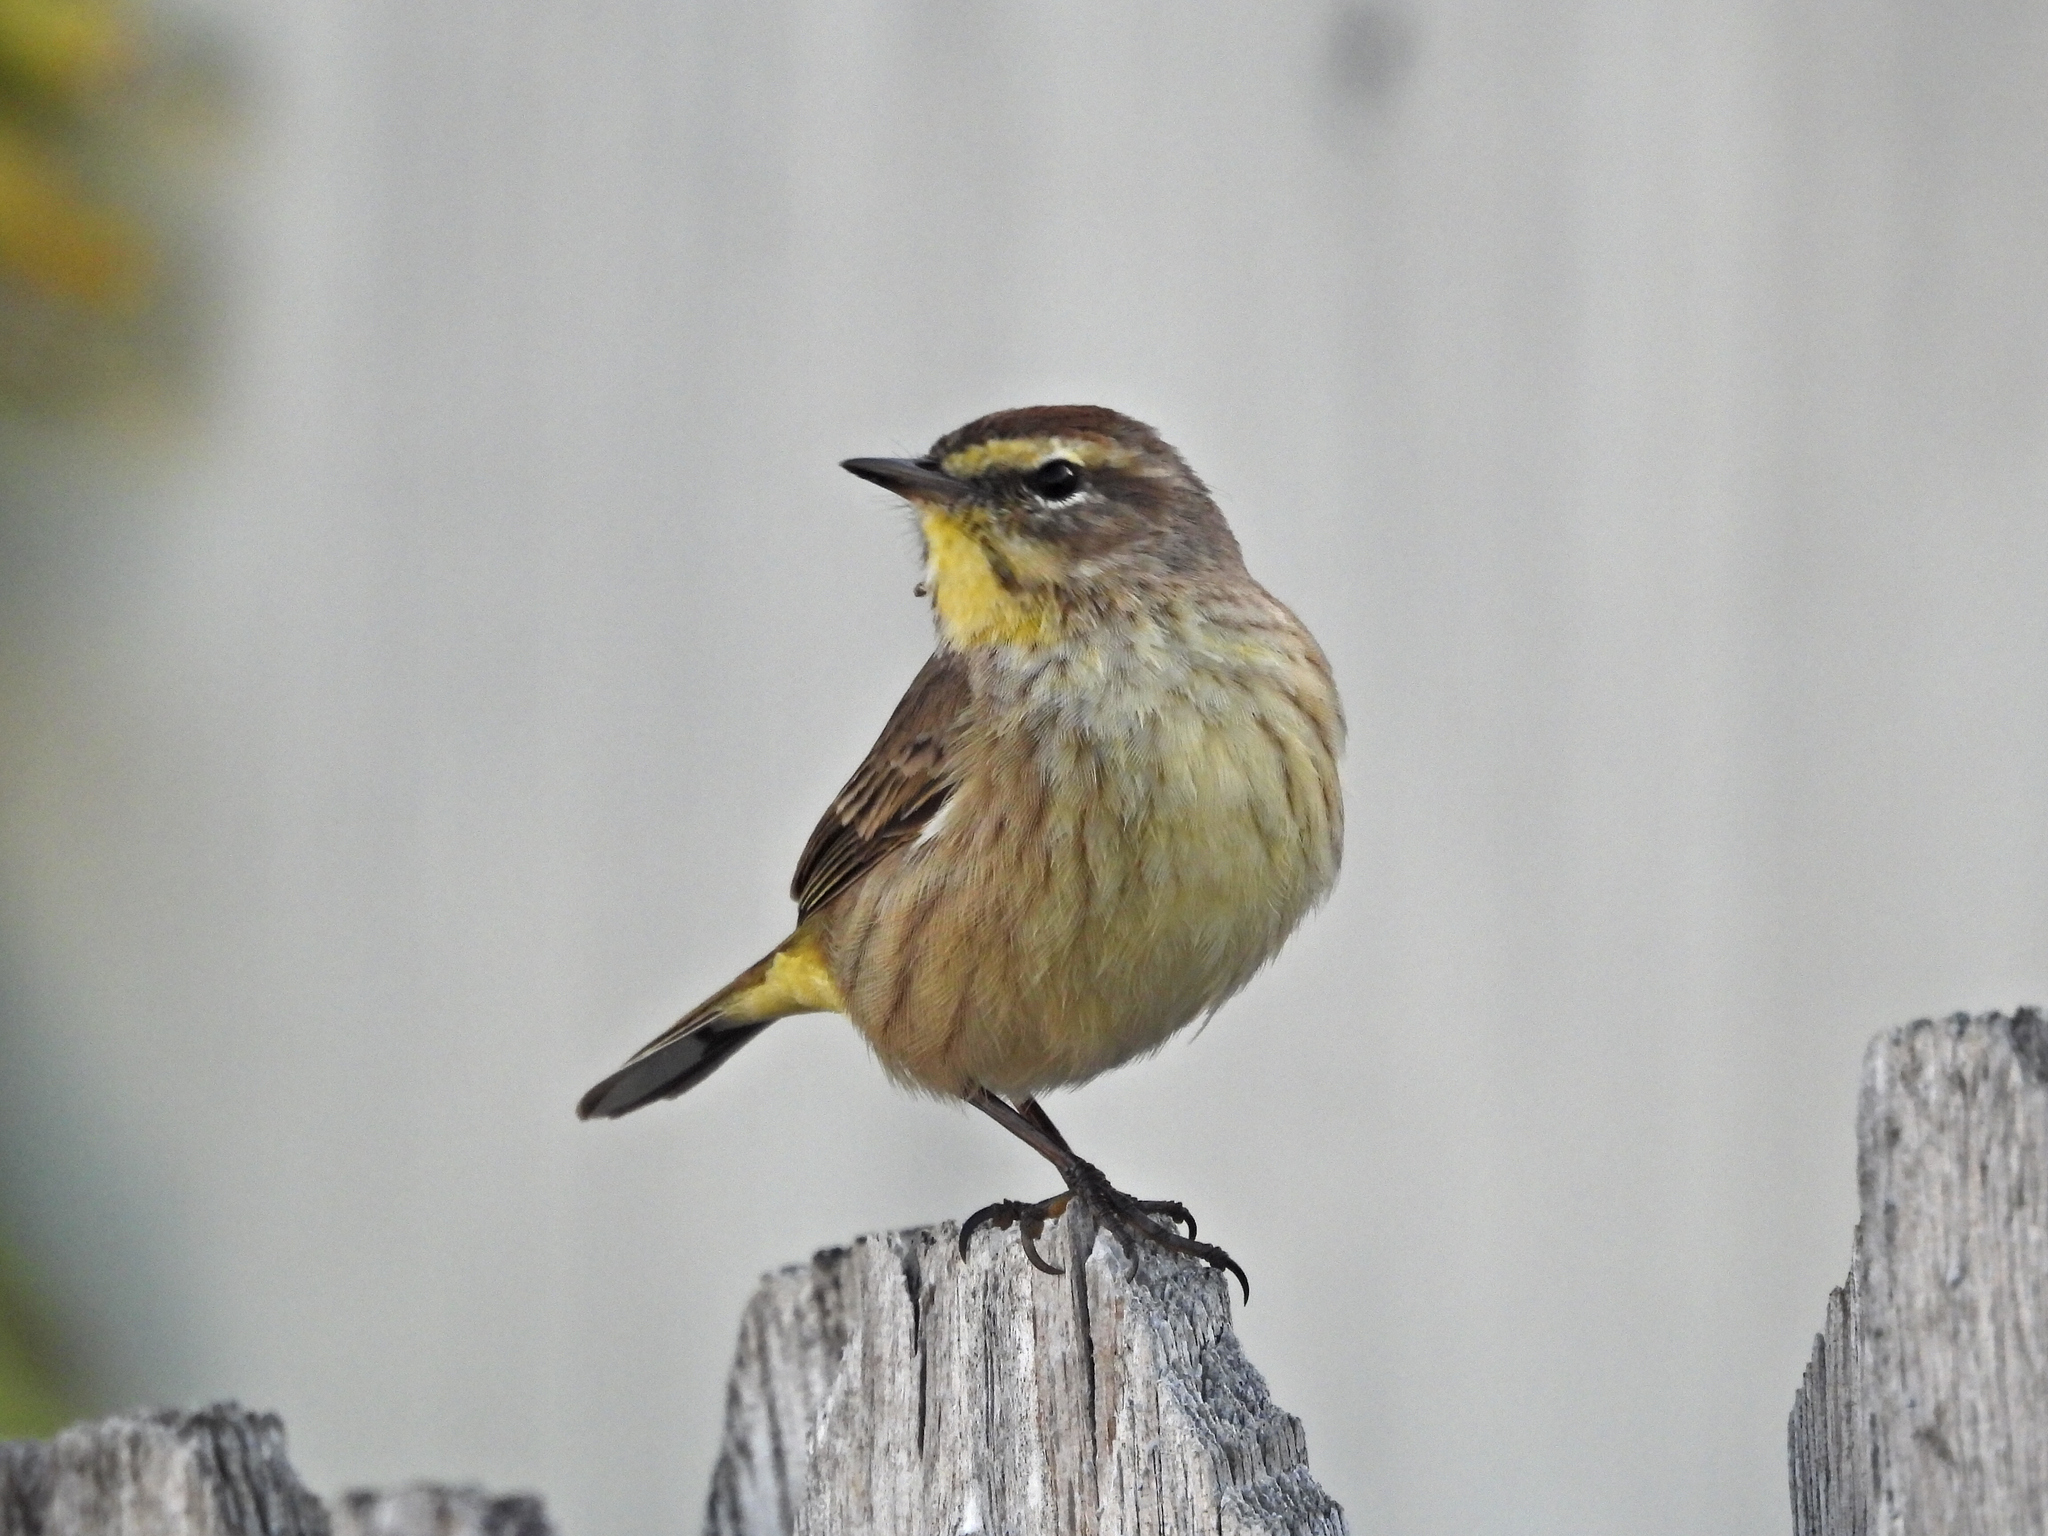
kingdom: Animalia
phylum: Chordata
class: Aves
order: Passeriformes
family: Parulidae
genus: Setophaga
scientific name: Setophaga palmarum
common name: Palm warbler
